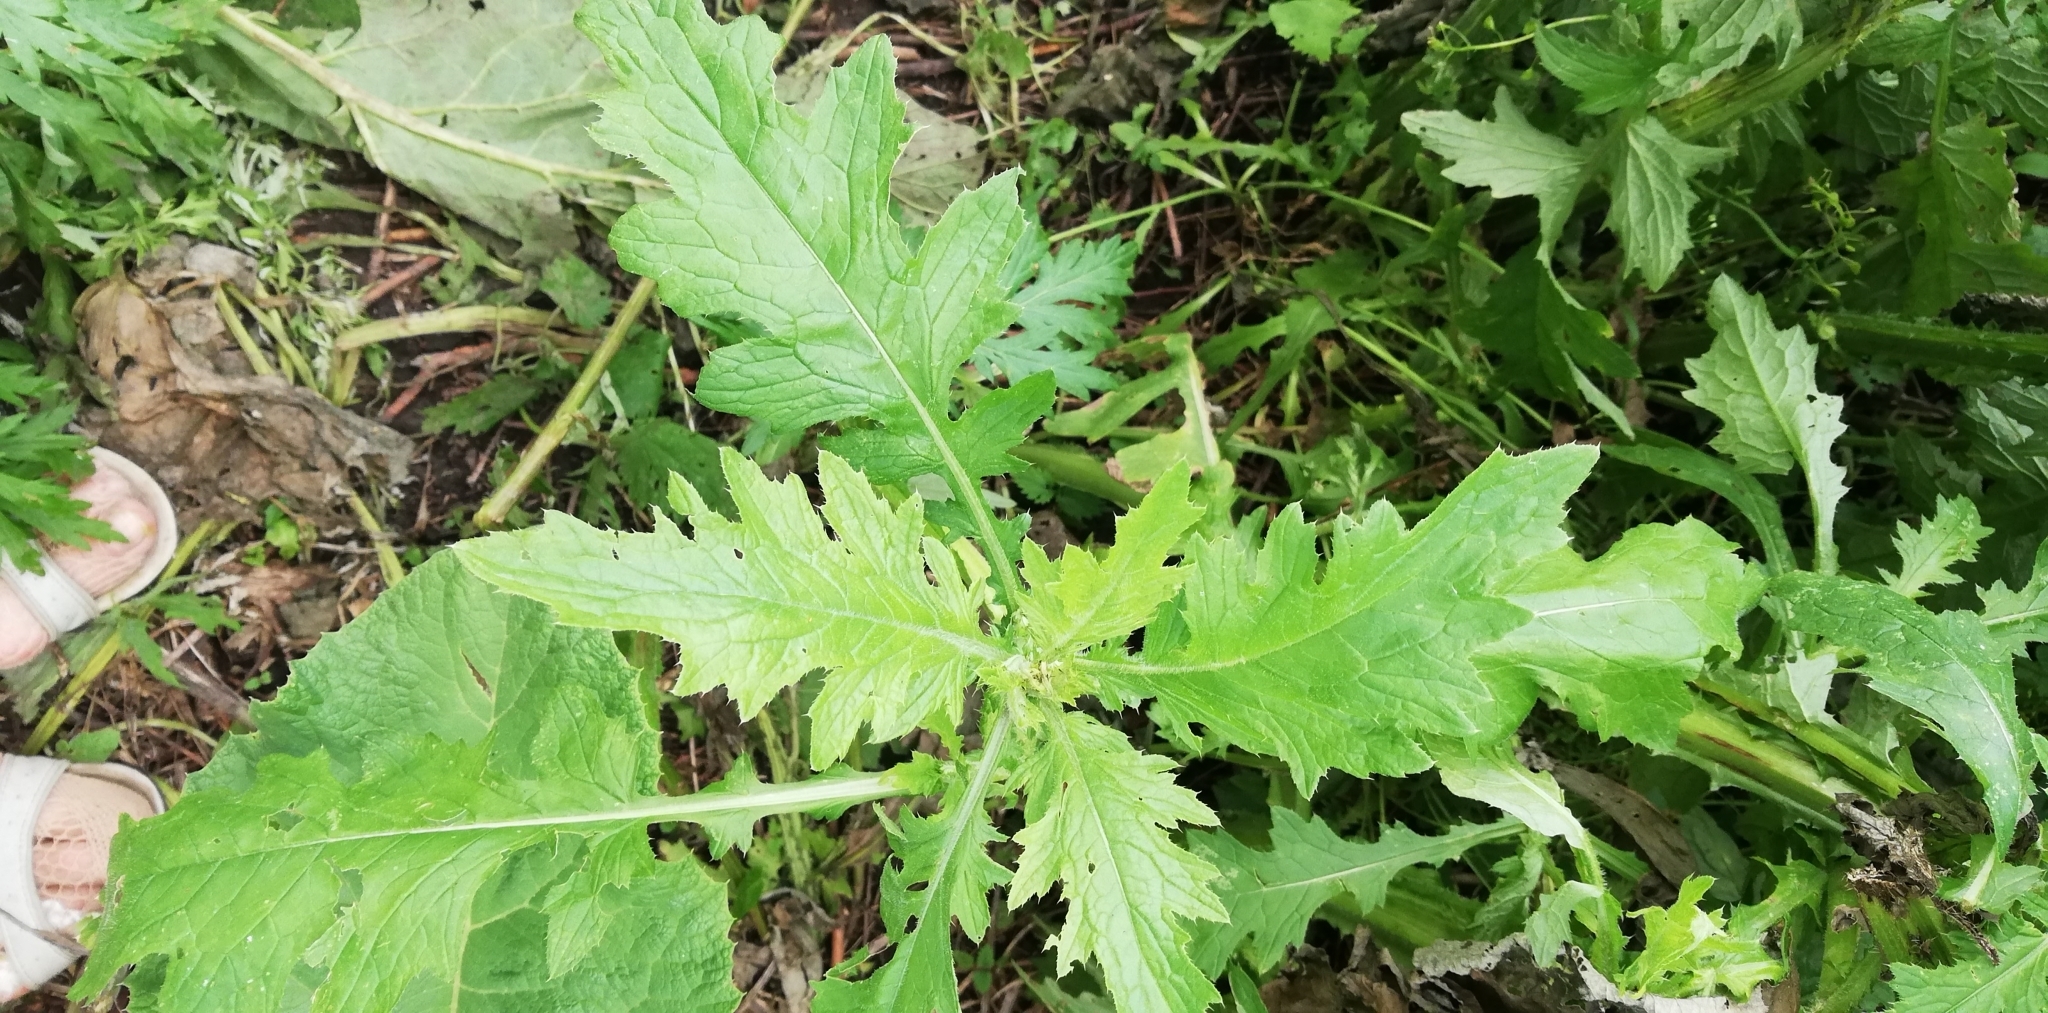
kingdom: Plantae
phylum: Tracheophyta
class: Magnoliopsida
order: Asterales
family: Asteraceae
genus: Carduus
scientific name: Carduus crispus
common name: Welted thistle
